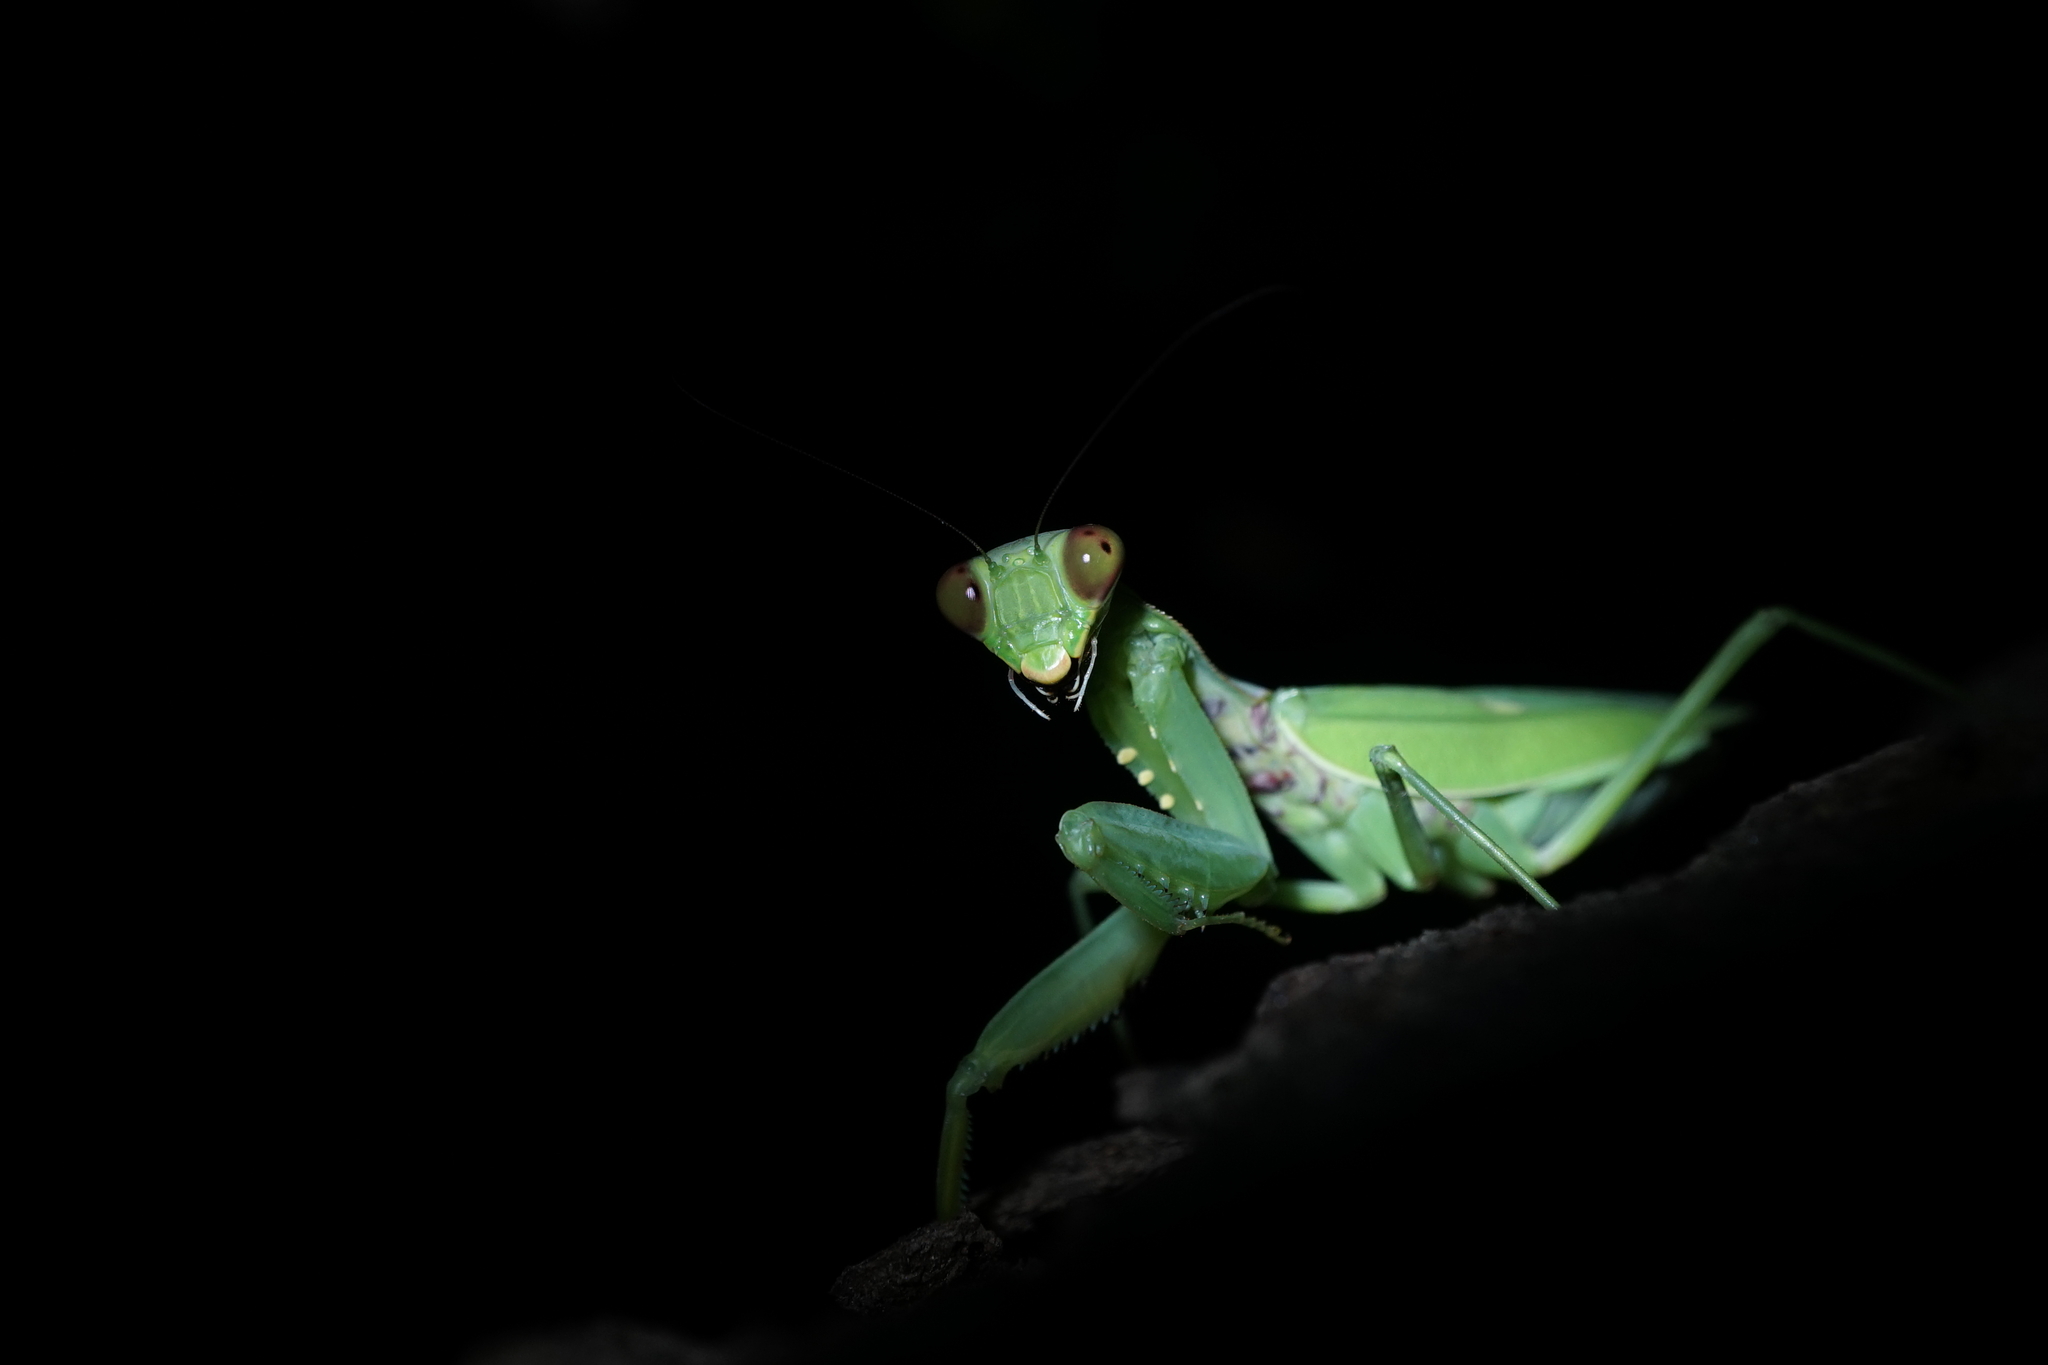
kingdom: Animalia
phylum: Arthropoda
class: Insecta
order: Mantodea
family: Mantidae
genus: Hierodula
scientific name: Hierodula patellifera
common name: Asian mantis
